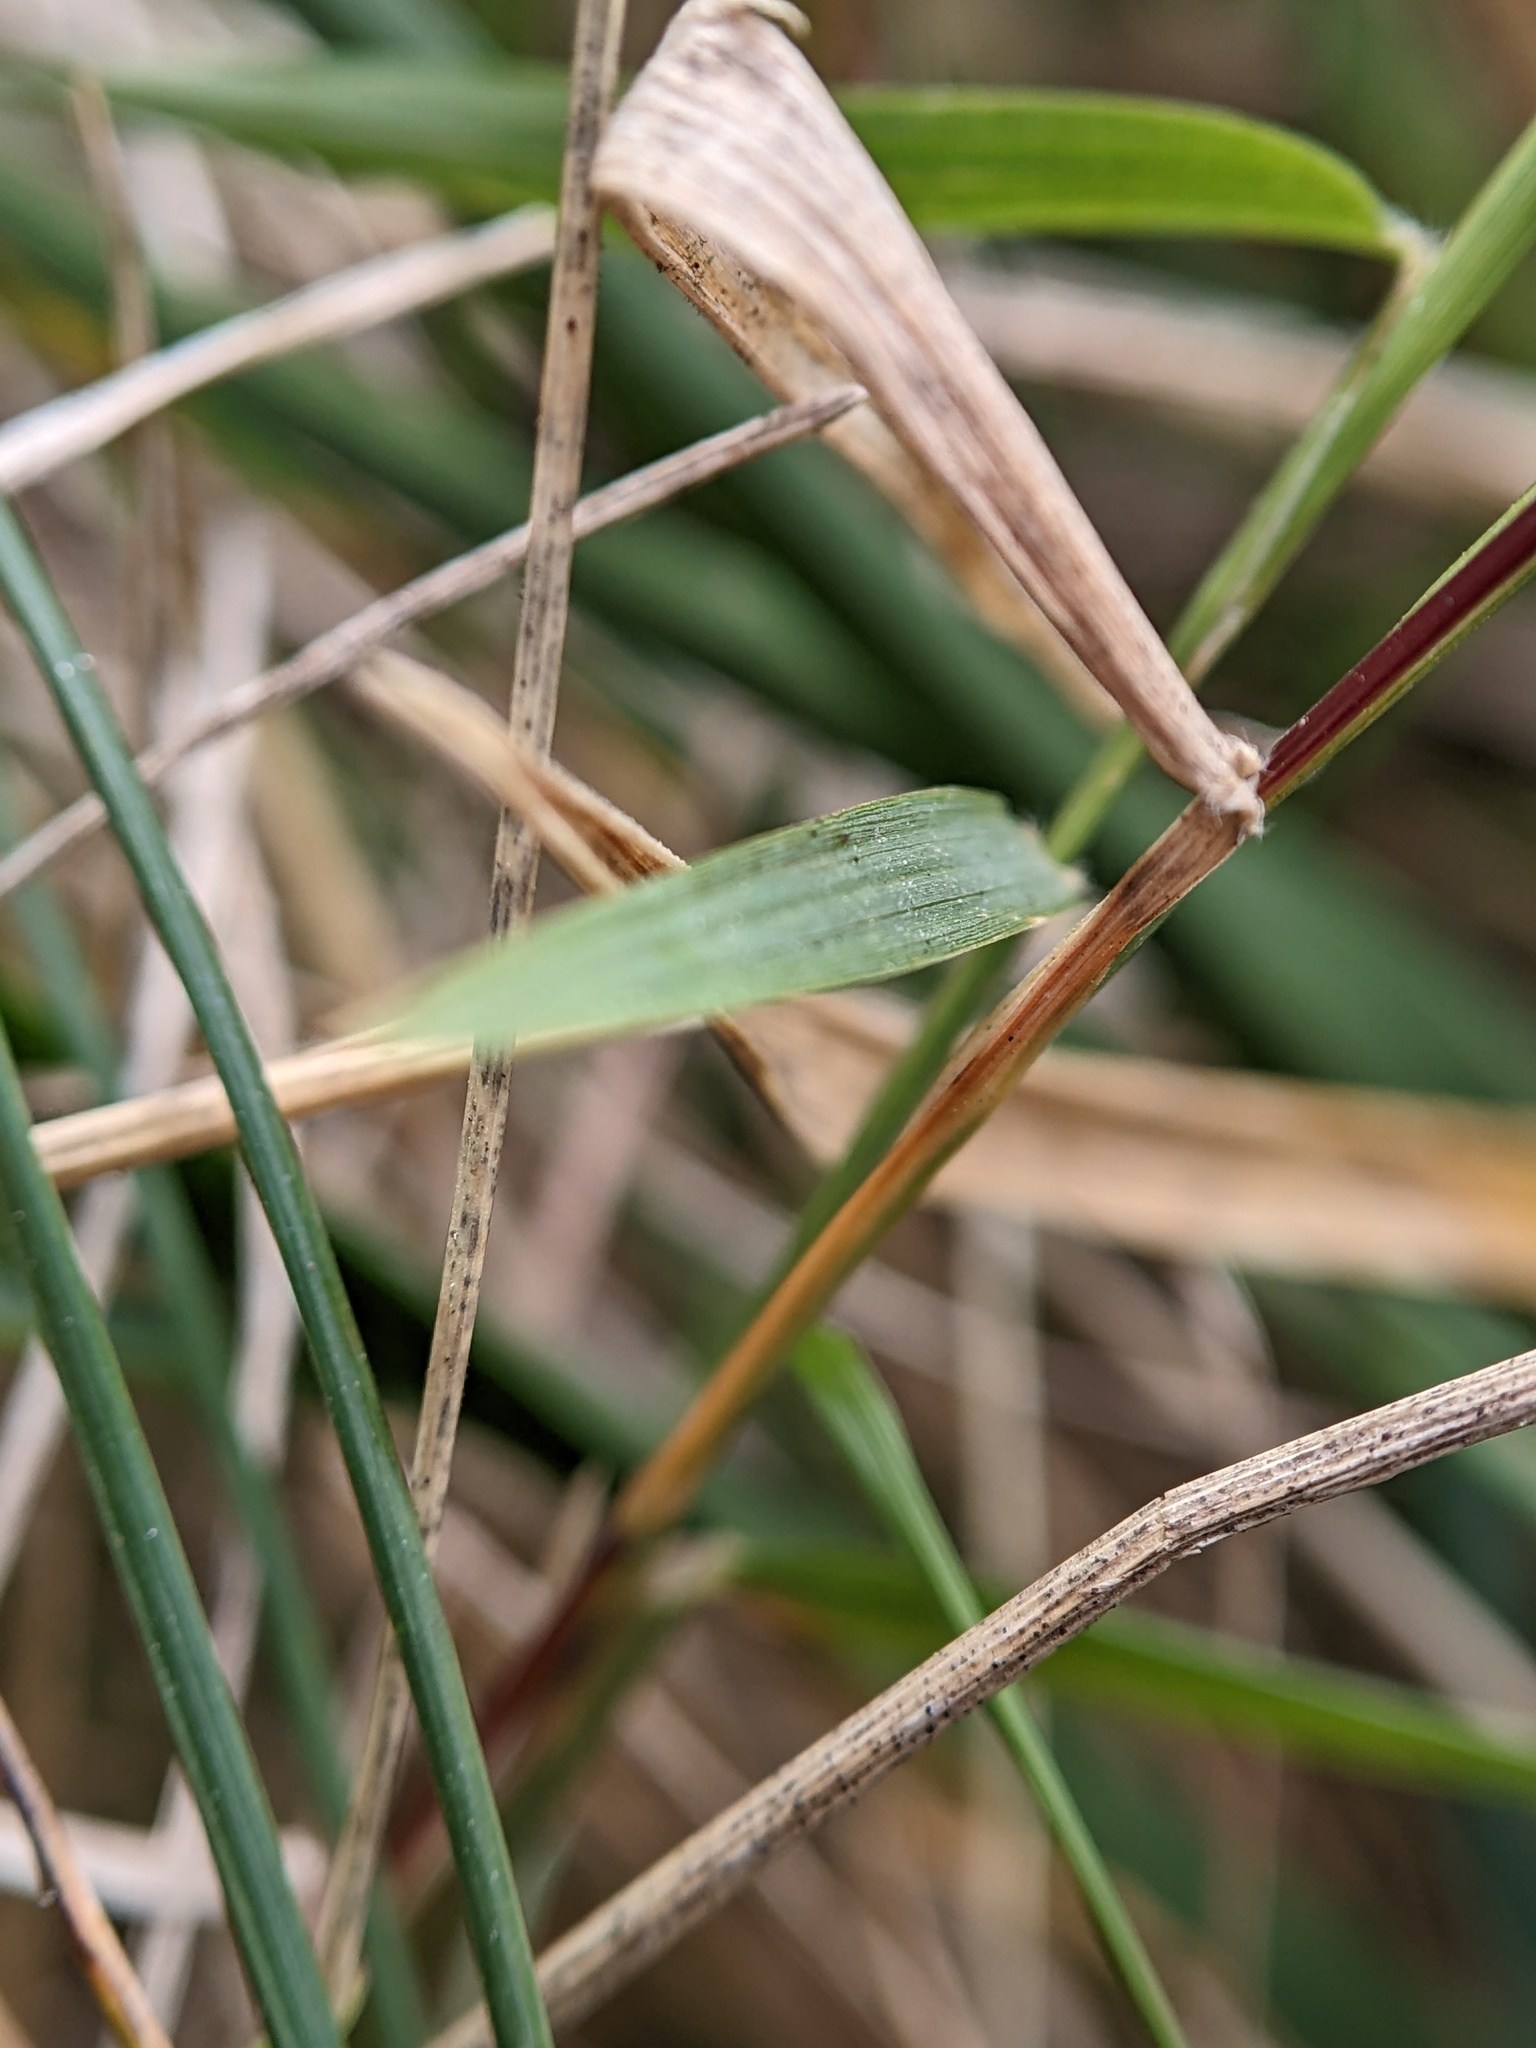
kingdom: Plantae
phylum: Tracheophyta
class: Liliopsida
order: Poales
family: Poaceae
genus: Muhlenbergia
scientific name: Muhlenbergia schreberi
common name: Nimblewill
